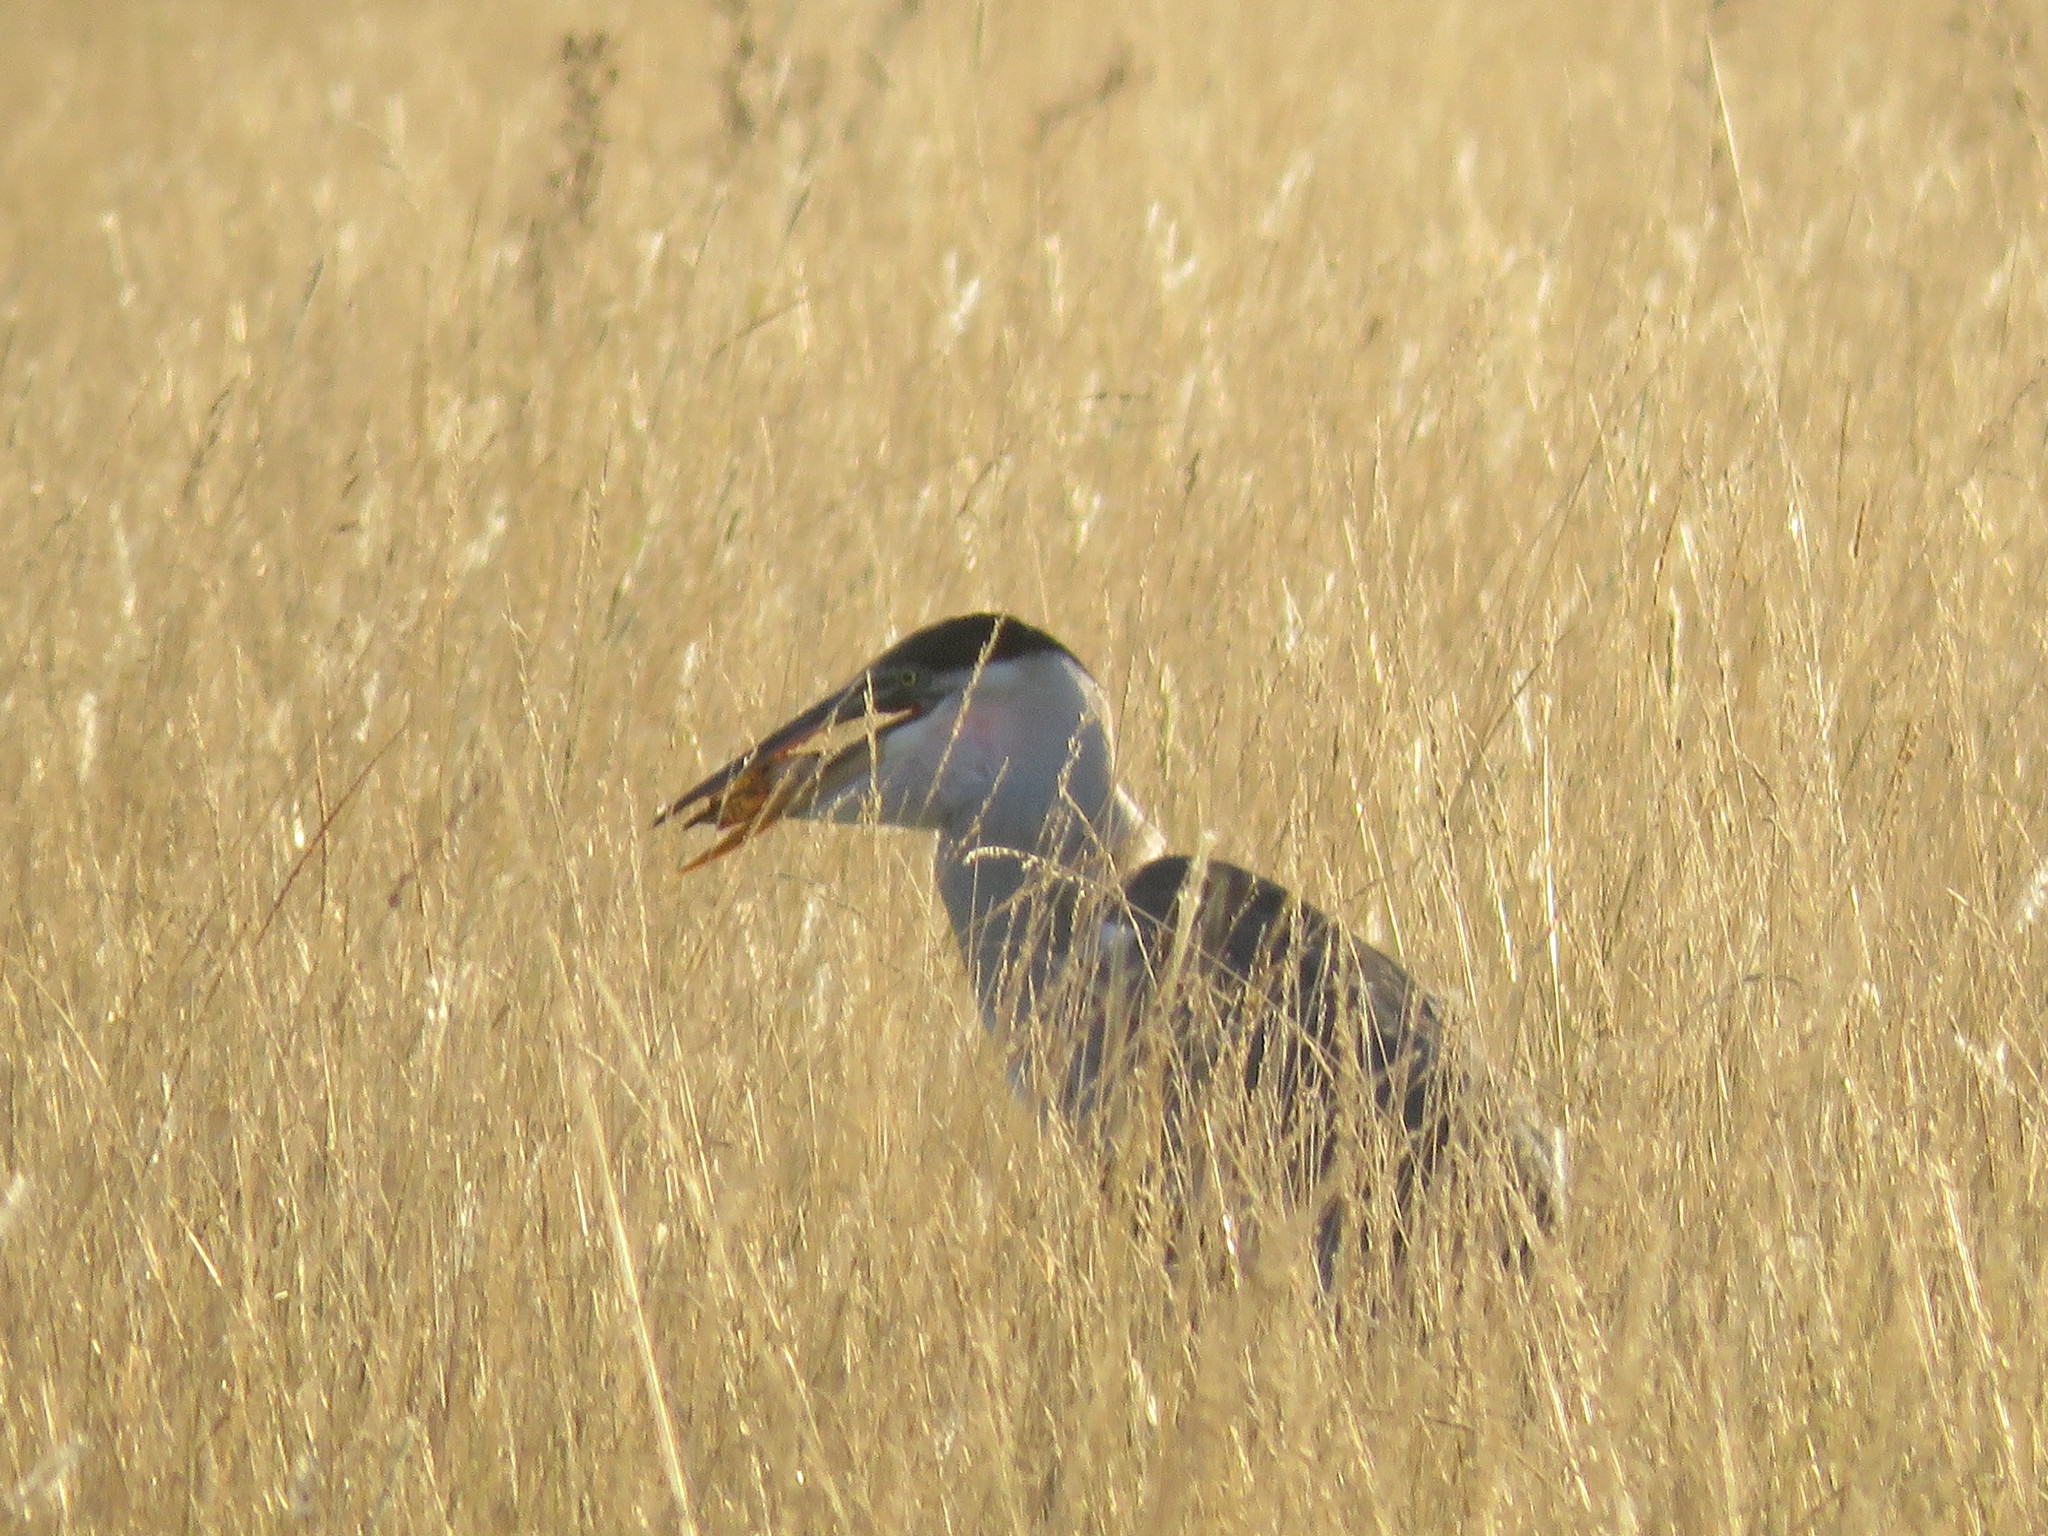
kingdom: Animalia
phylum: Chordata
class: Aves
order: Pelecaniformes
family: Ardeidae
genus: Ardea
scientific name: Ardea cocoi
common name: Cocoi heron
